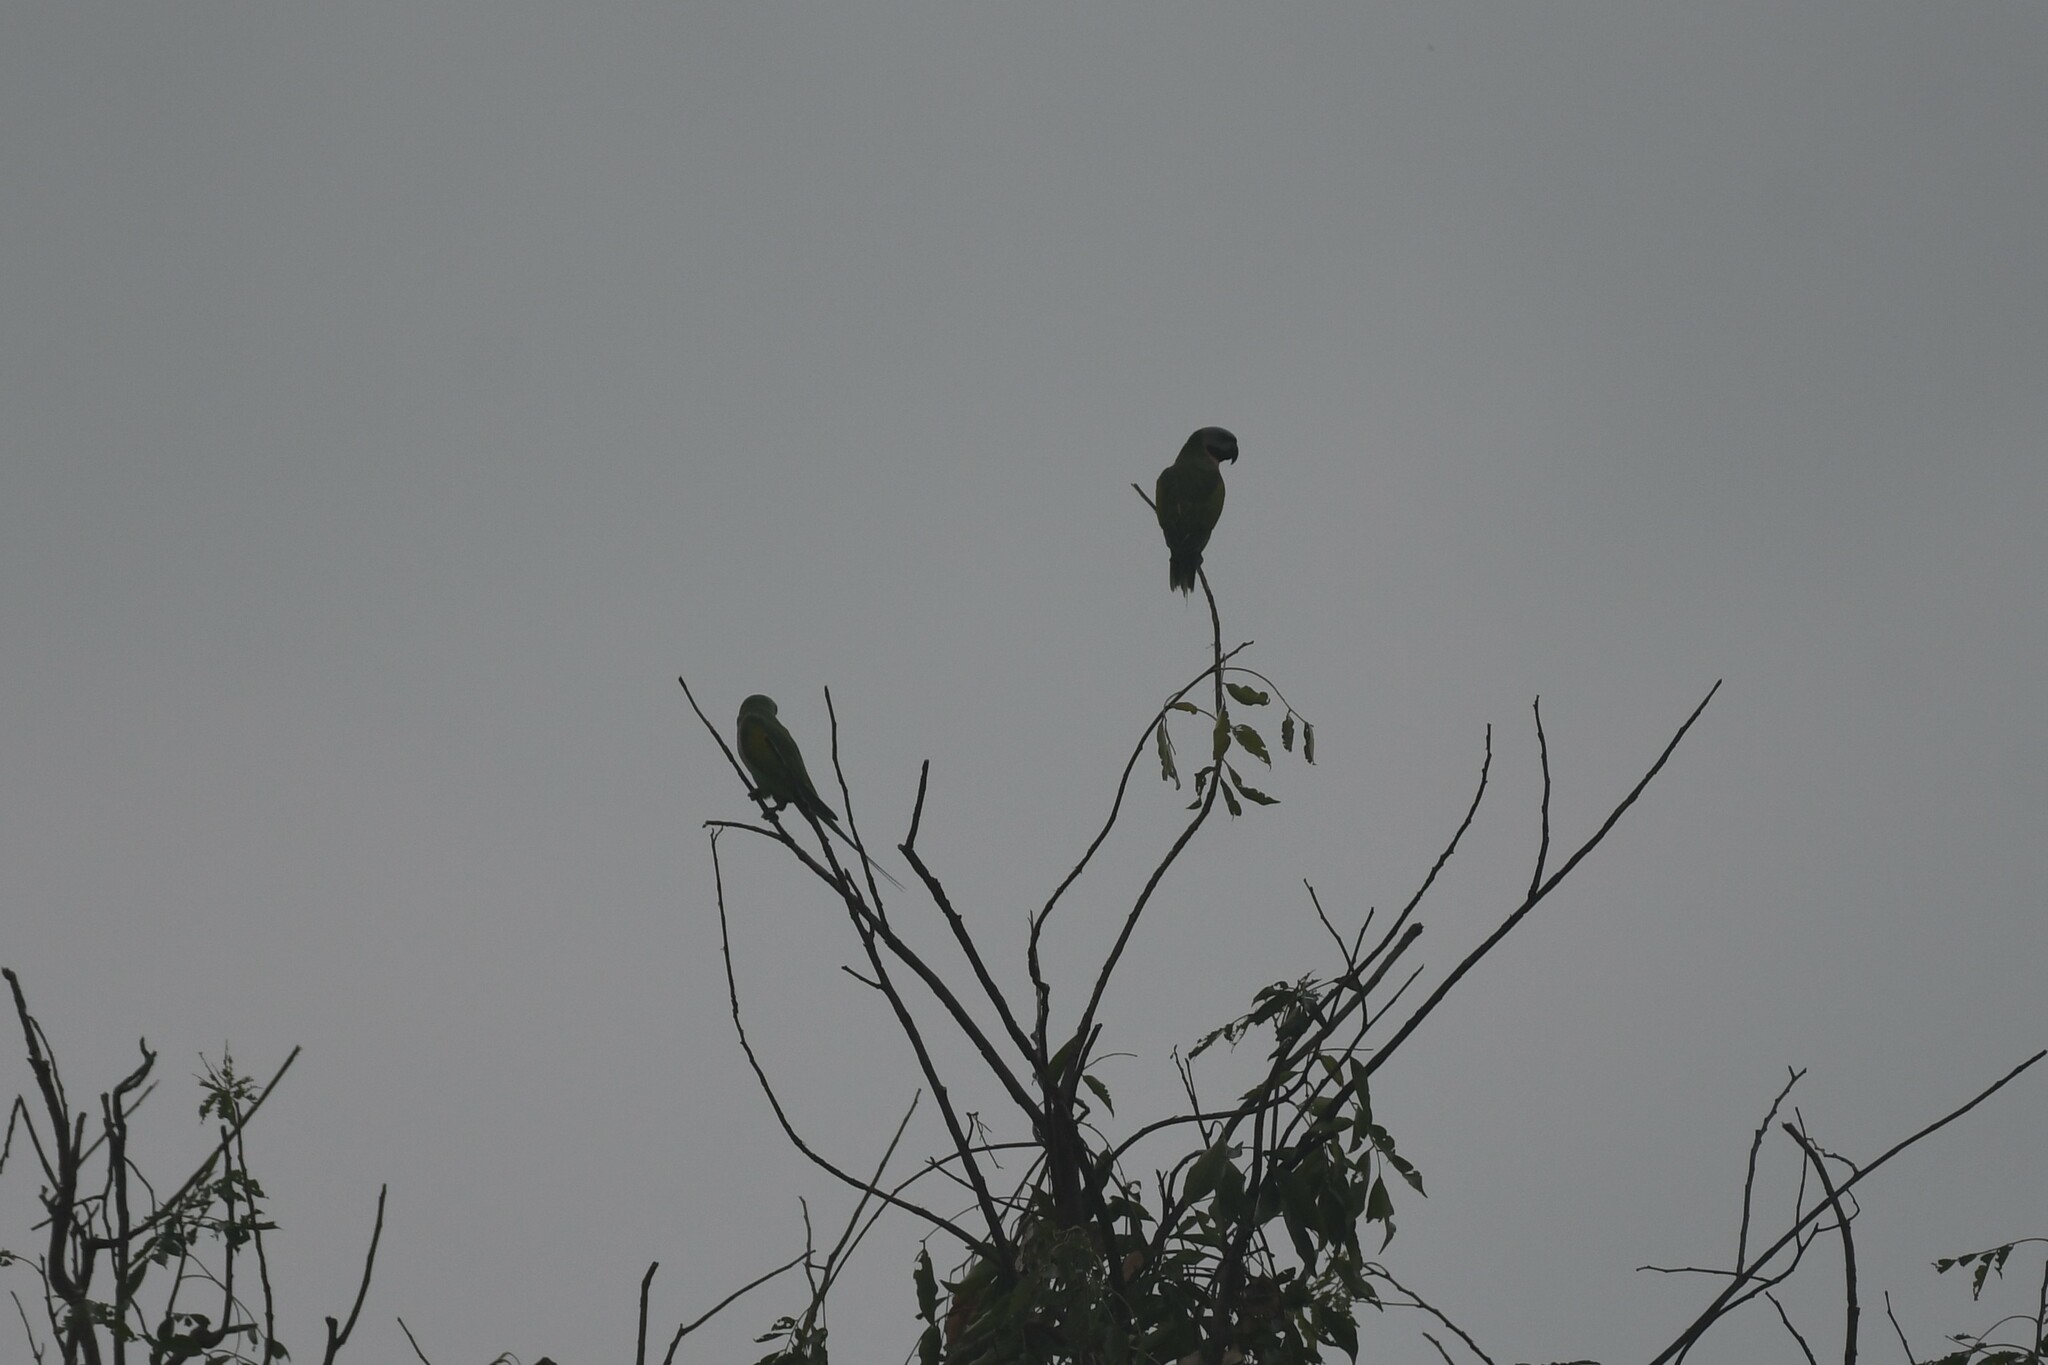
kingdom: Animalia
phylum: Chordata
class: Aves
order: Psittaciformes
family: Psittacidae
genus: Psittacula
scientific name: Psittacula alexandri
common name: Red-breasted parakeet
